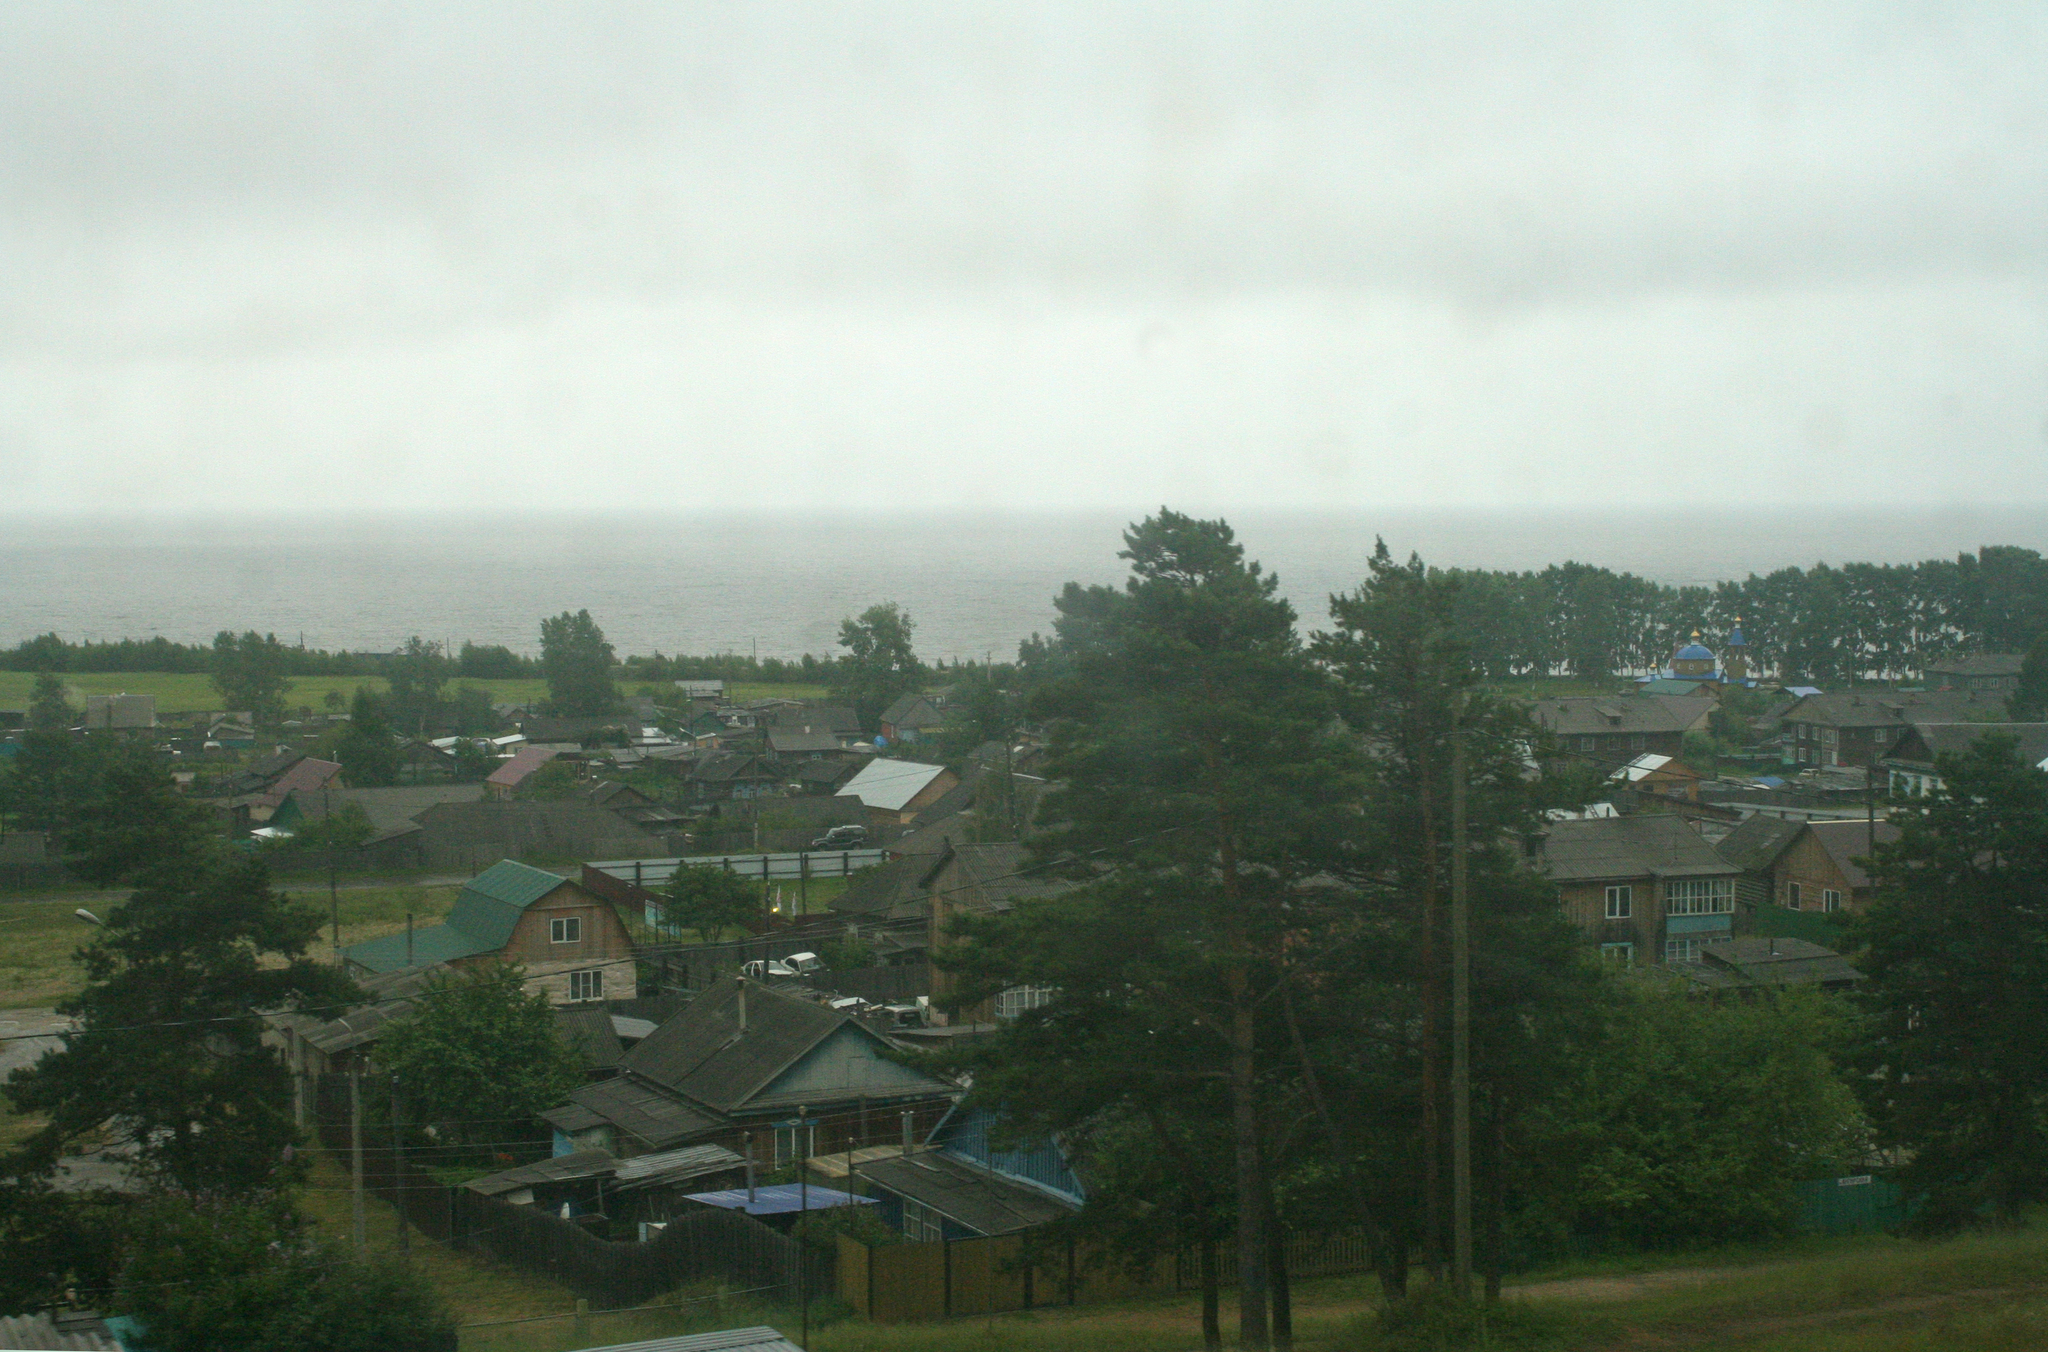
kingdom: Plantae
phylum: Tracheophyta
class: Pinopsida
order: Pinales
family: Pinaceae
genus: Pinus
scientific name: Pinus sylvestris
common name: Scots pine
